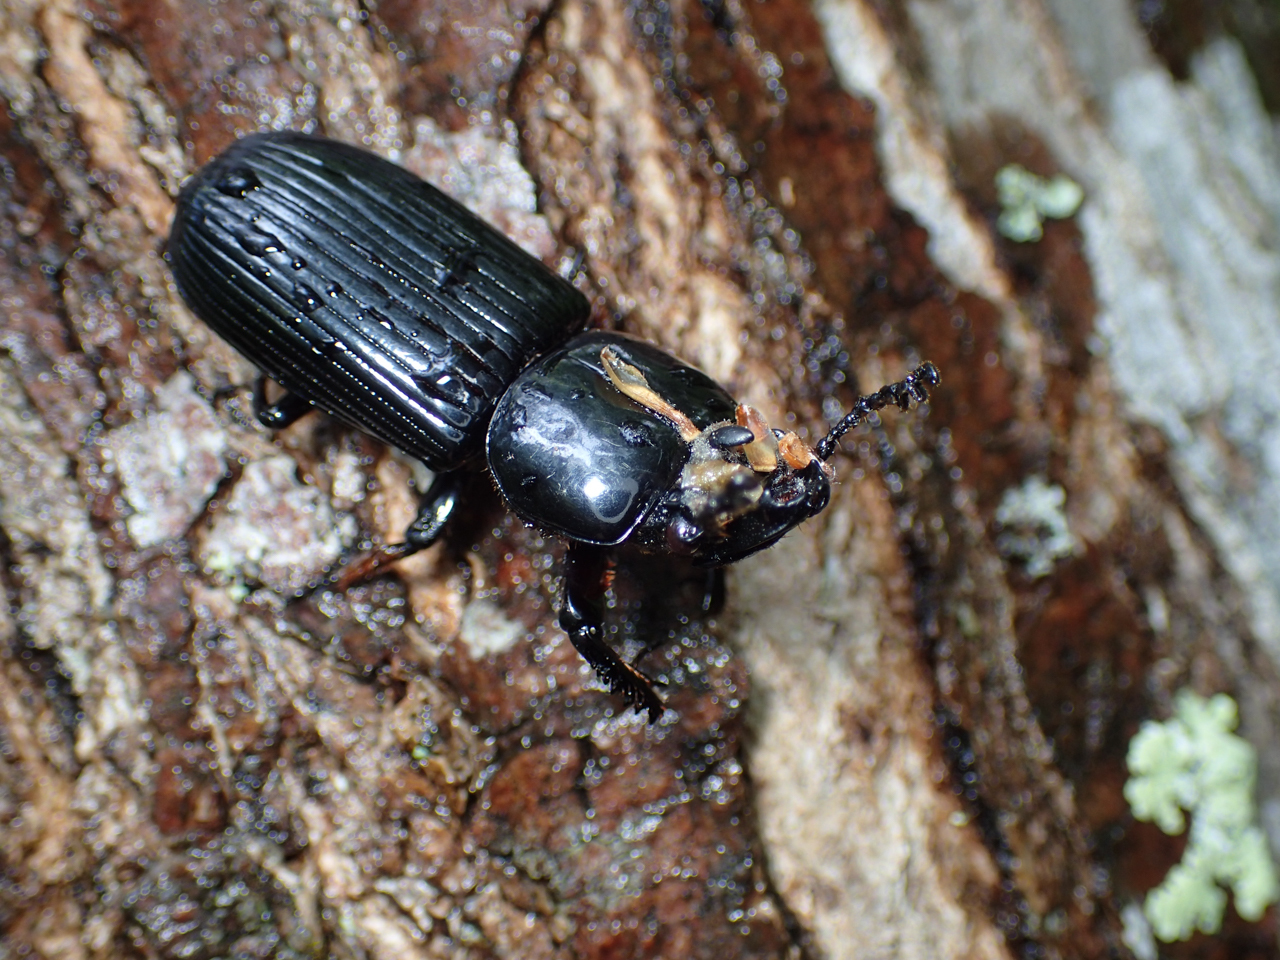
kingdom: Animalia
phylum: Arthropoda
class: Insecta
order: Coleoptera
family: Passalidae
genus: Odontotaenius
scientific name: Odontotaenius disjunctus
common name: Patent leather beetle
